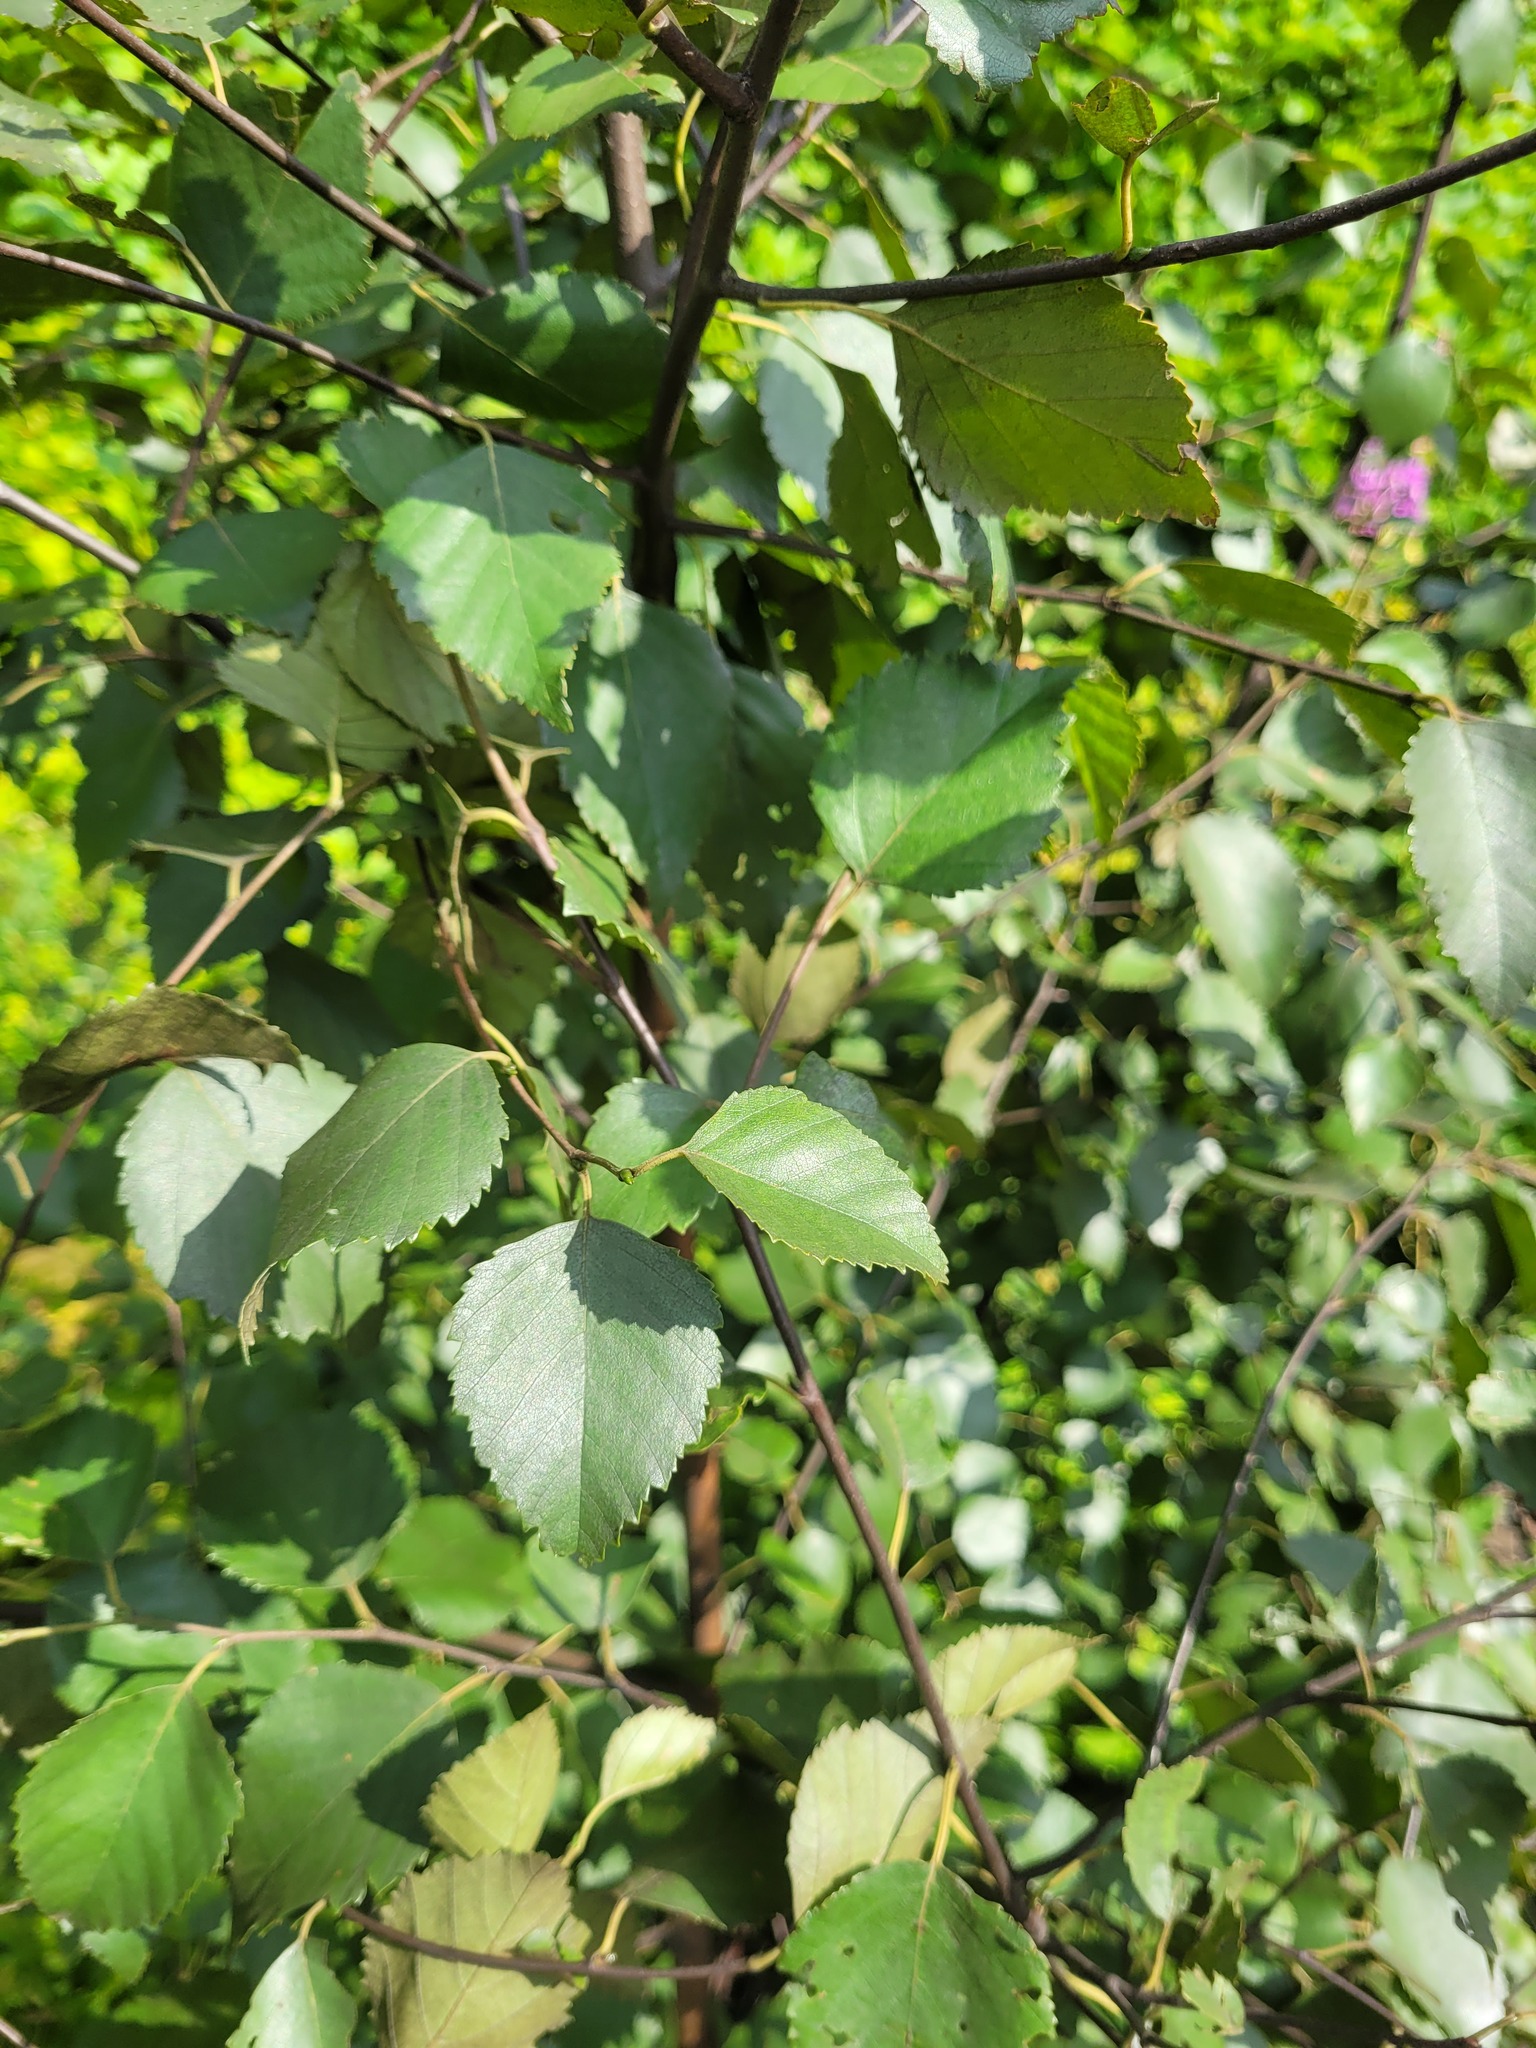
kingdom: Plantae
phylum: Tracheophyta
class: Magnoliopsida
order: Fagales
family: Betulaceae
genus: Betula
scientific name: Betula pendula
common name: Silver birch
